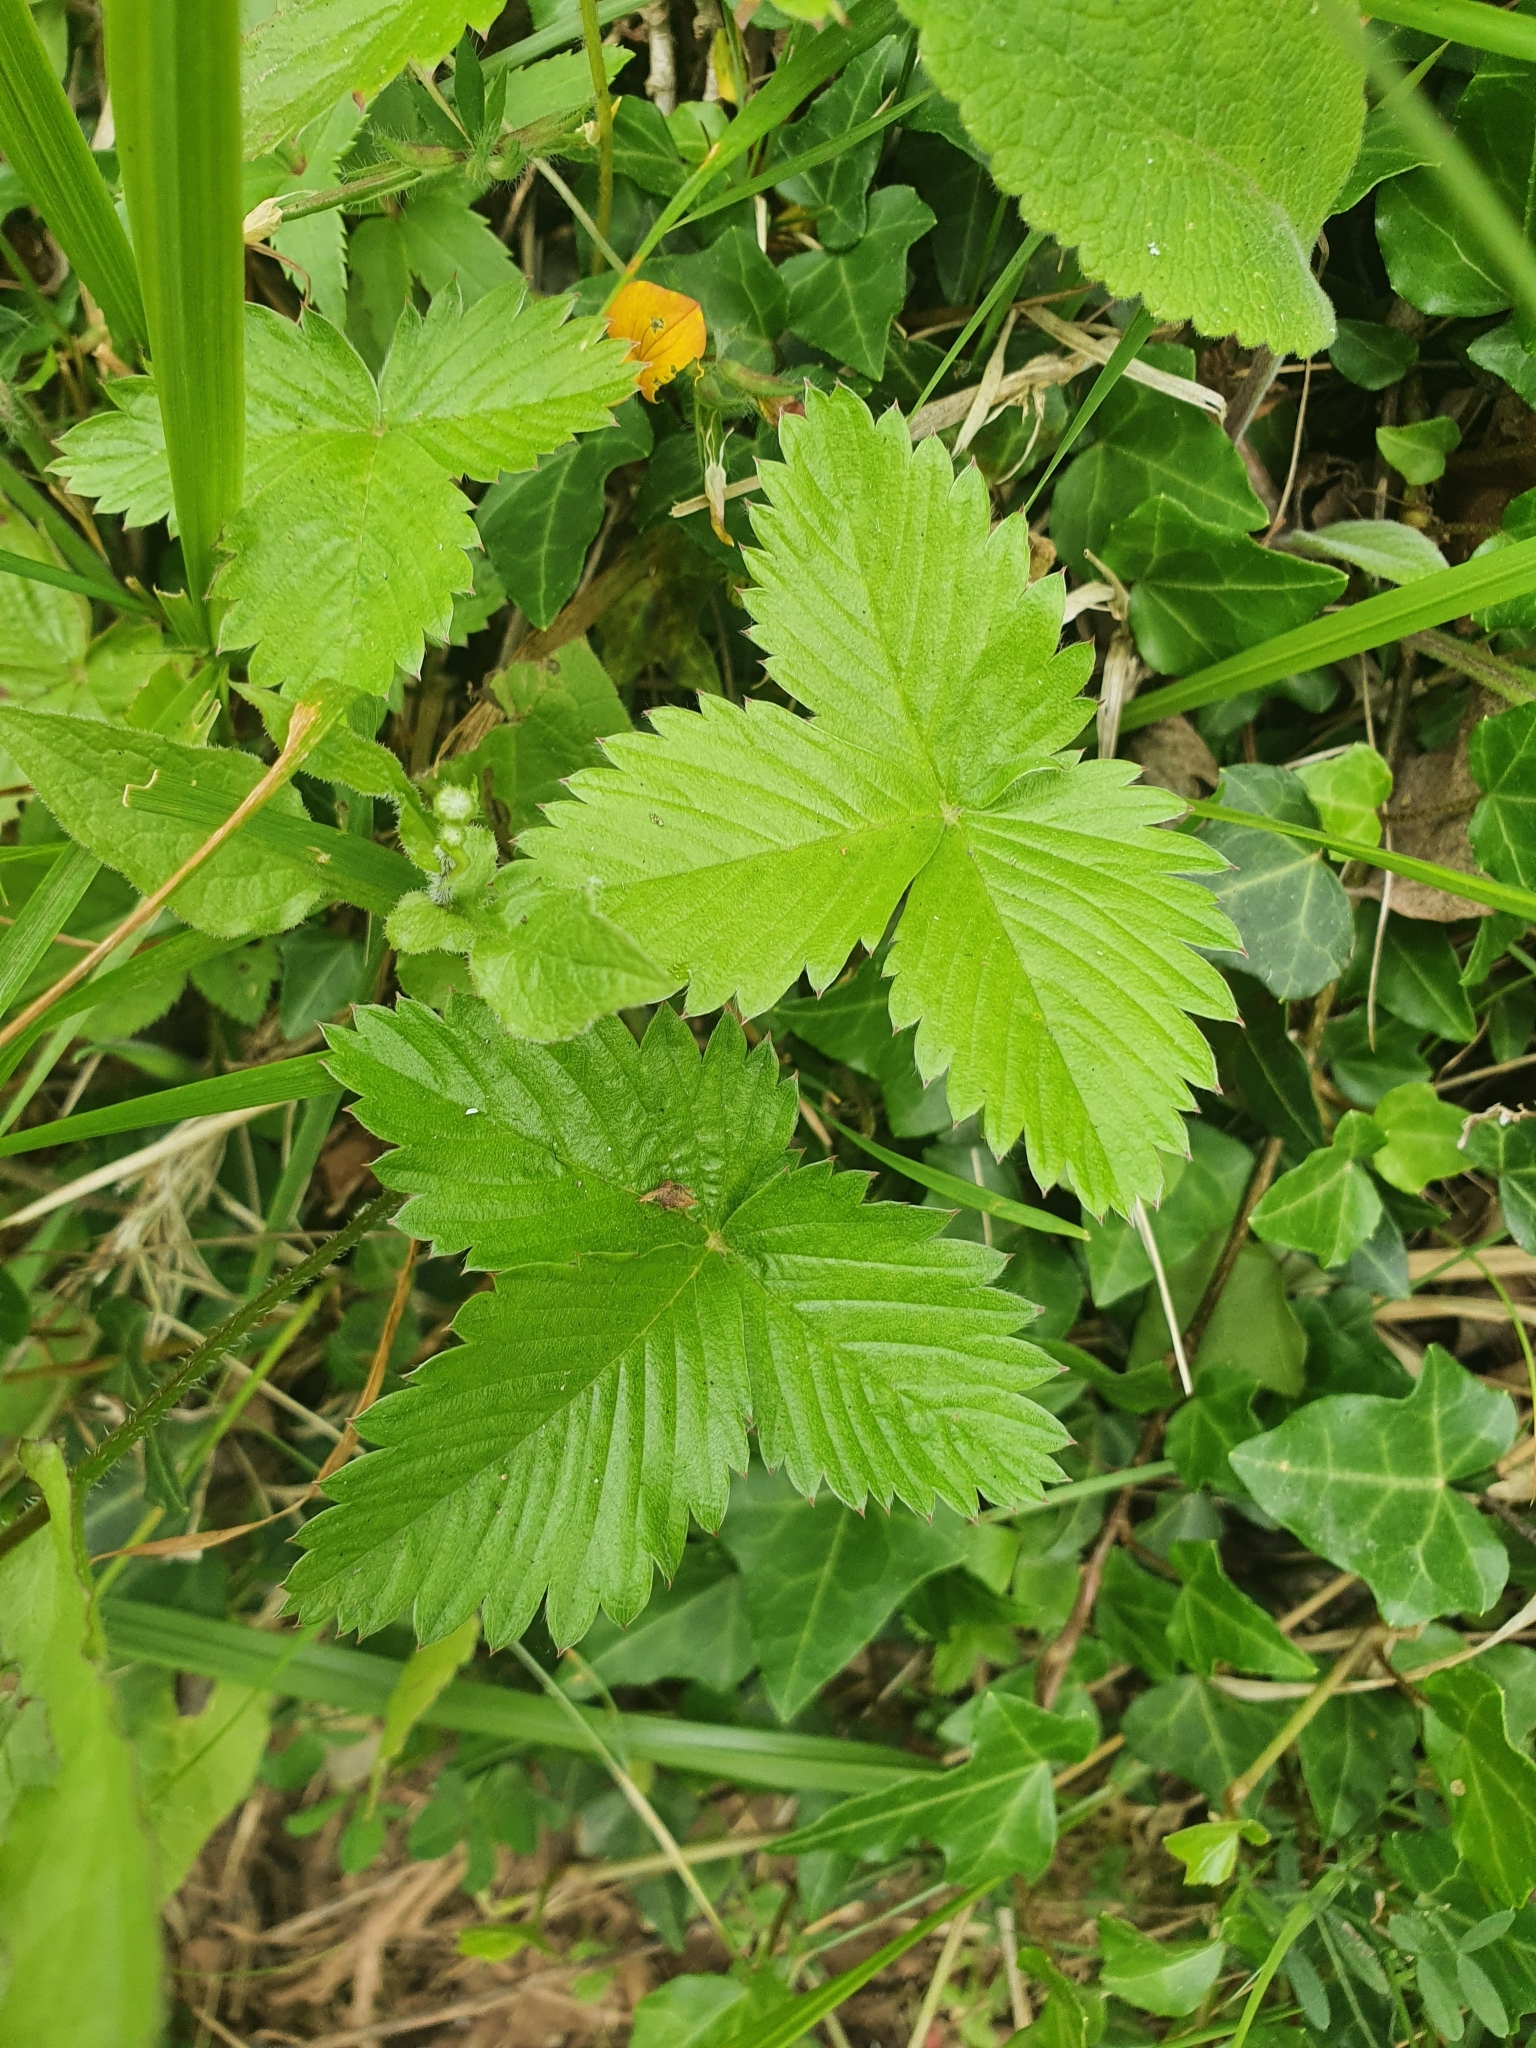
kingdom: Plantae
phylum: Tracheophyta
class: Magnoliopsida
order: Rosales
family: Rosaceae
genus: Fragaria
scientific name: Fragaria vesca
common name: Wild strawberry
